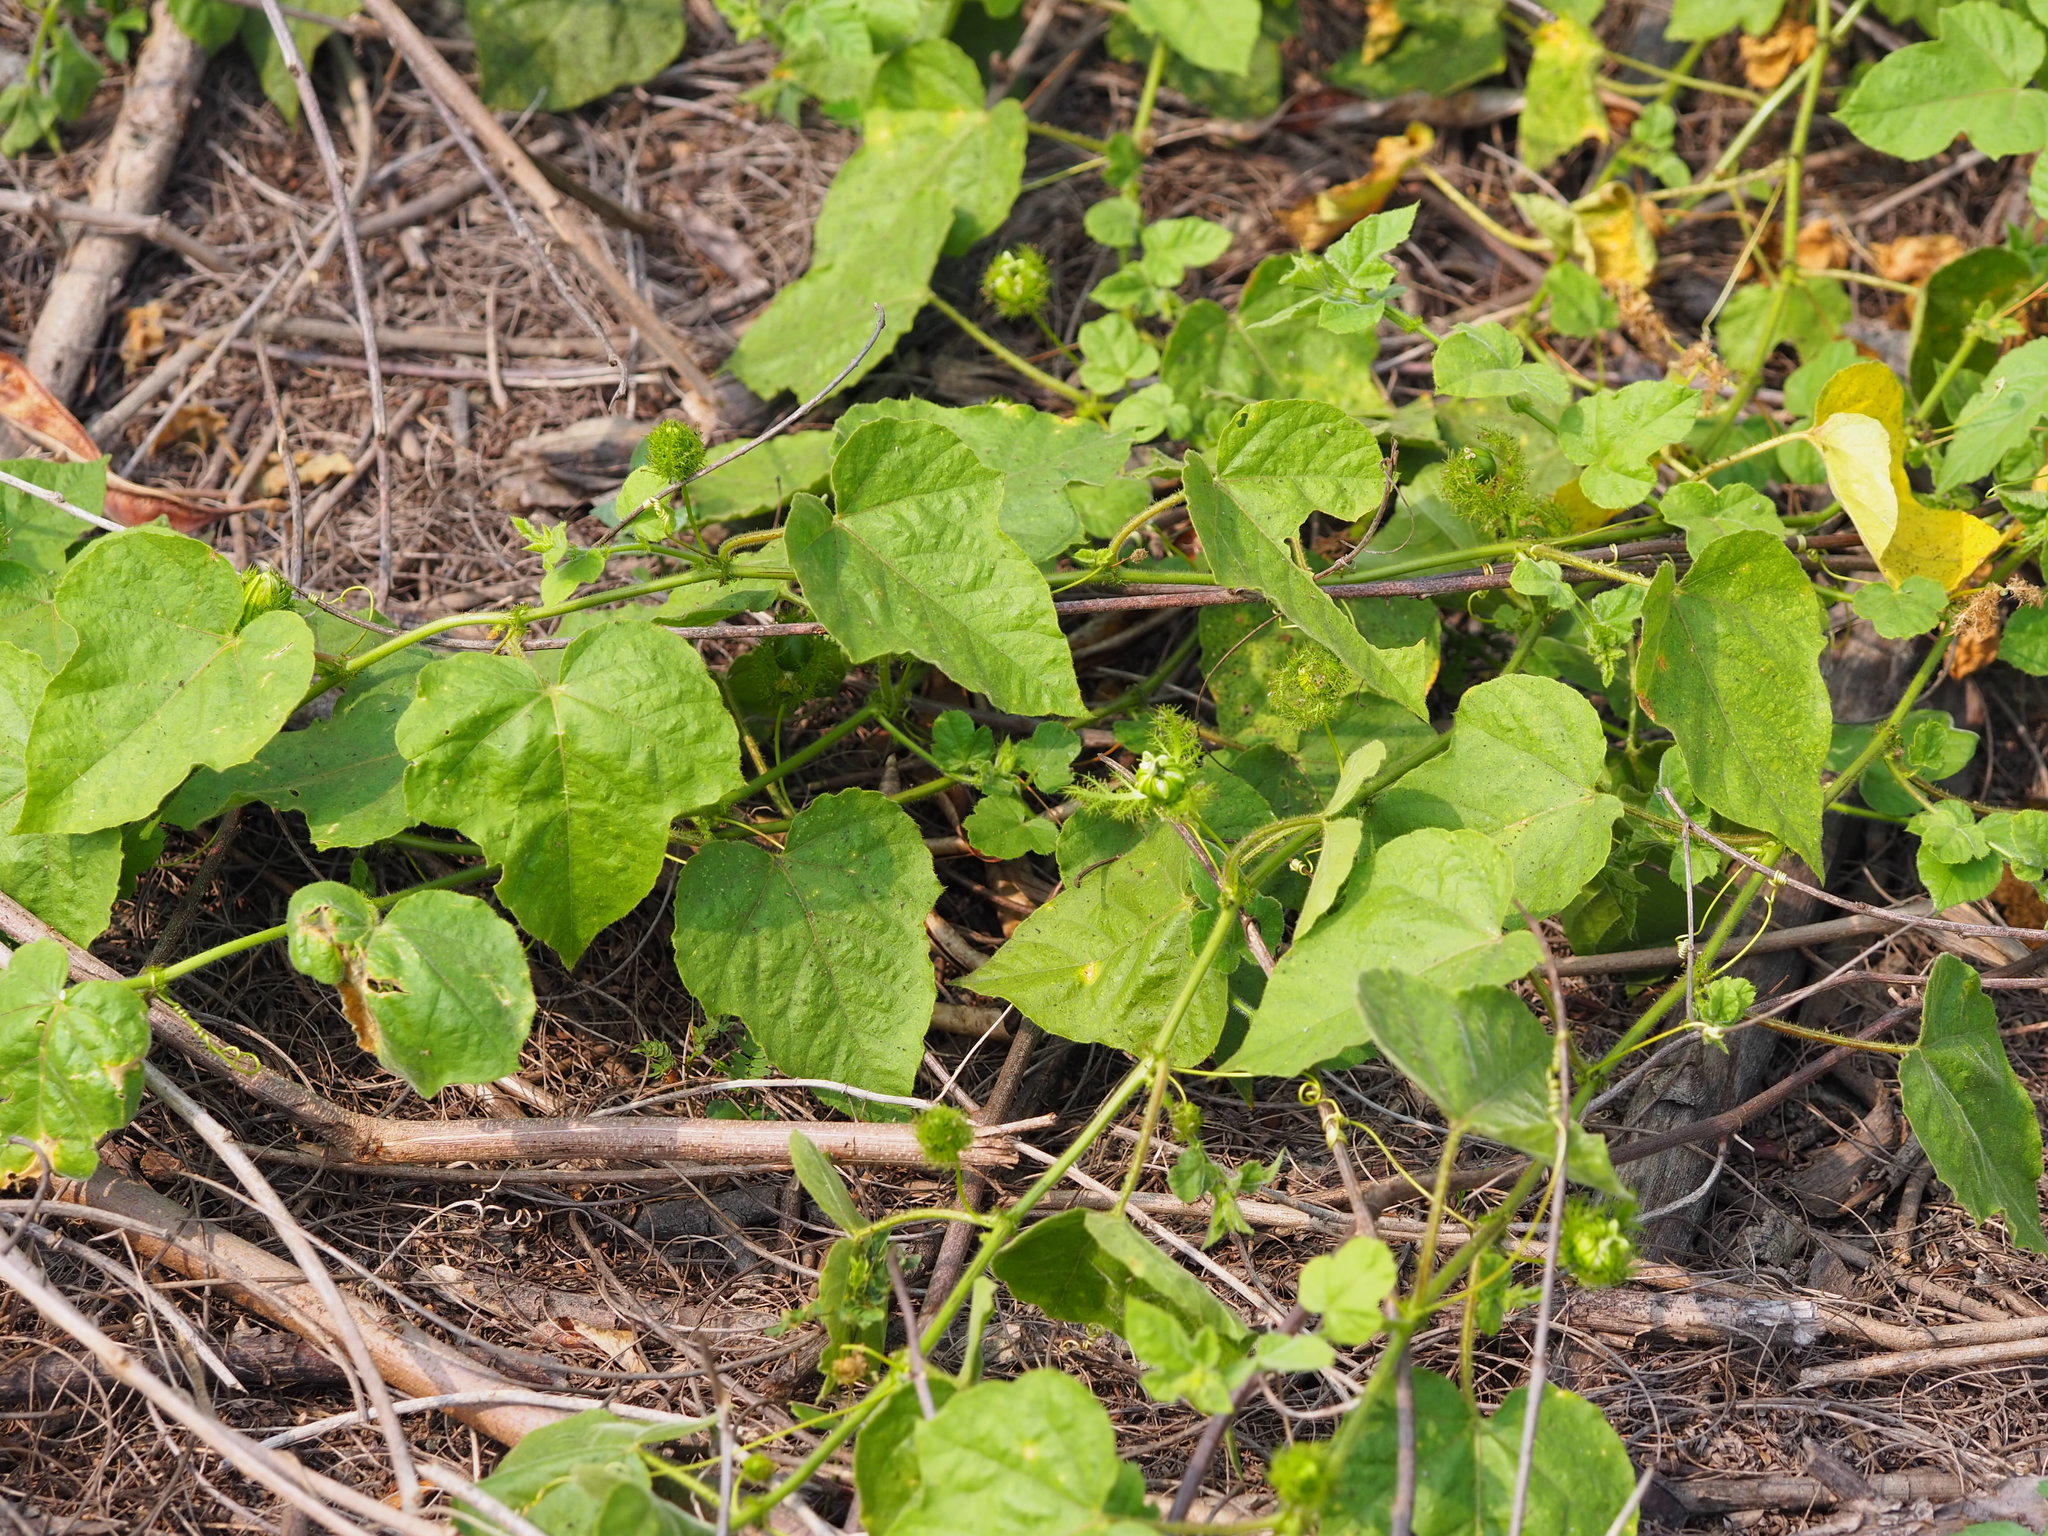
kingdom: Plantae
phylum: Tracheophyta
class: Magnoliopsida
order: Malpighiales
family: Passifloraceae
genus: Passiflora
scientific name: Passiflora vesicaria
